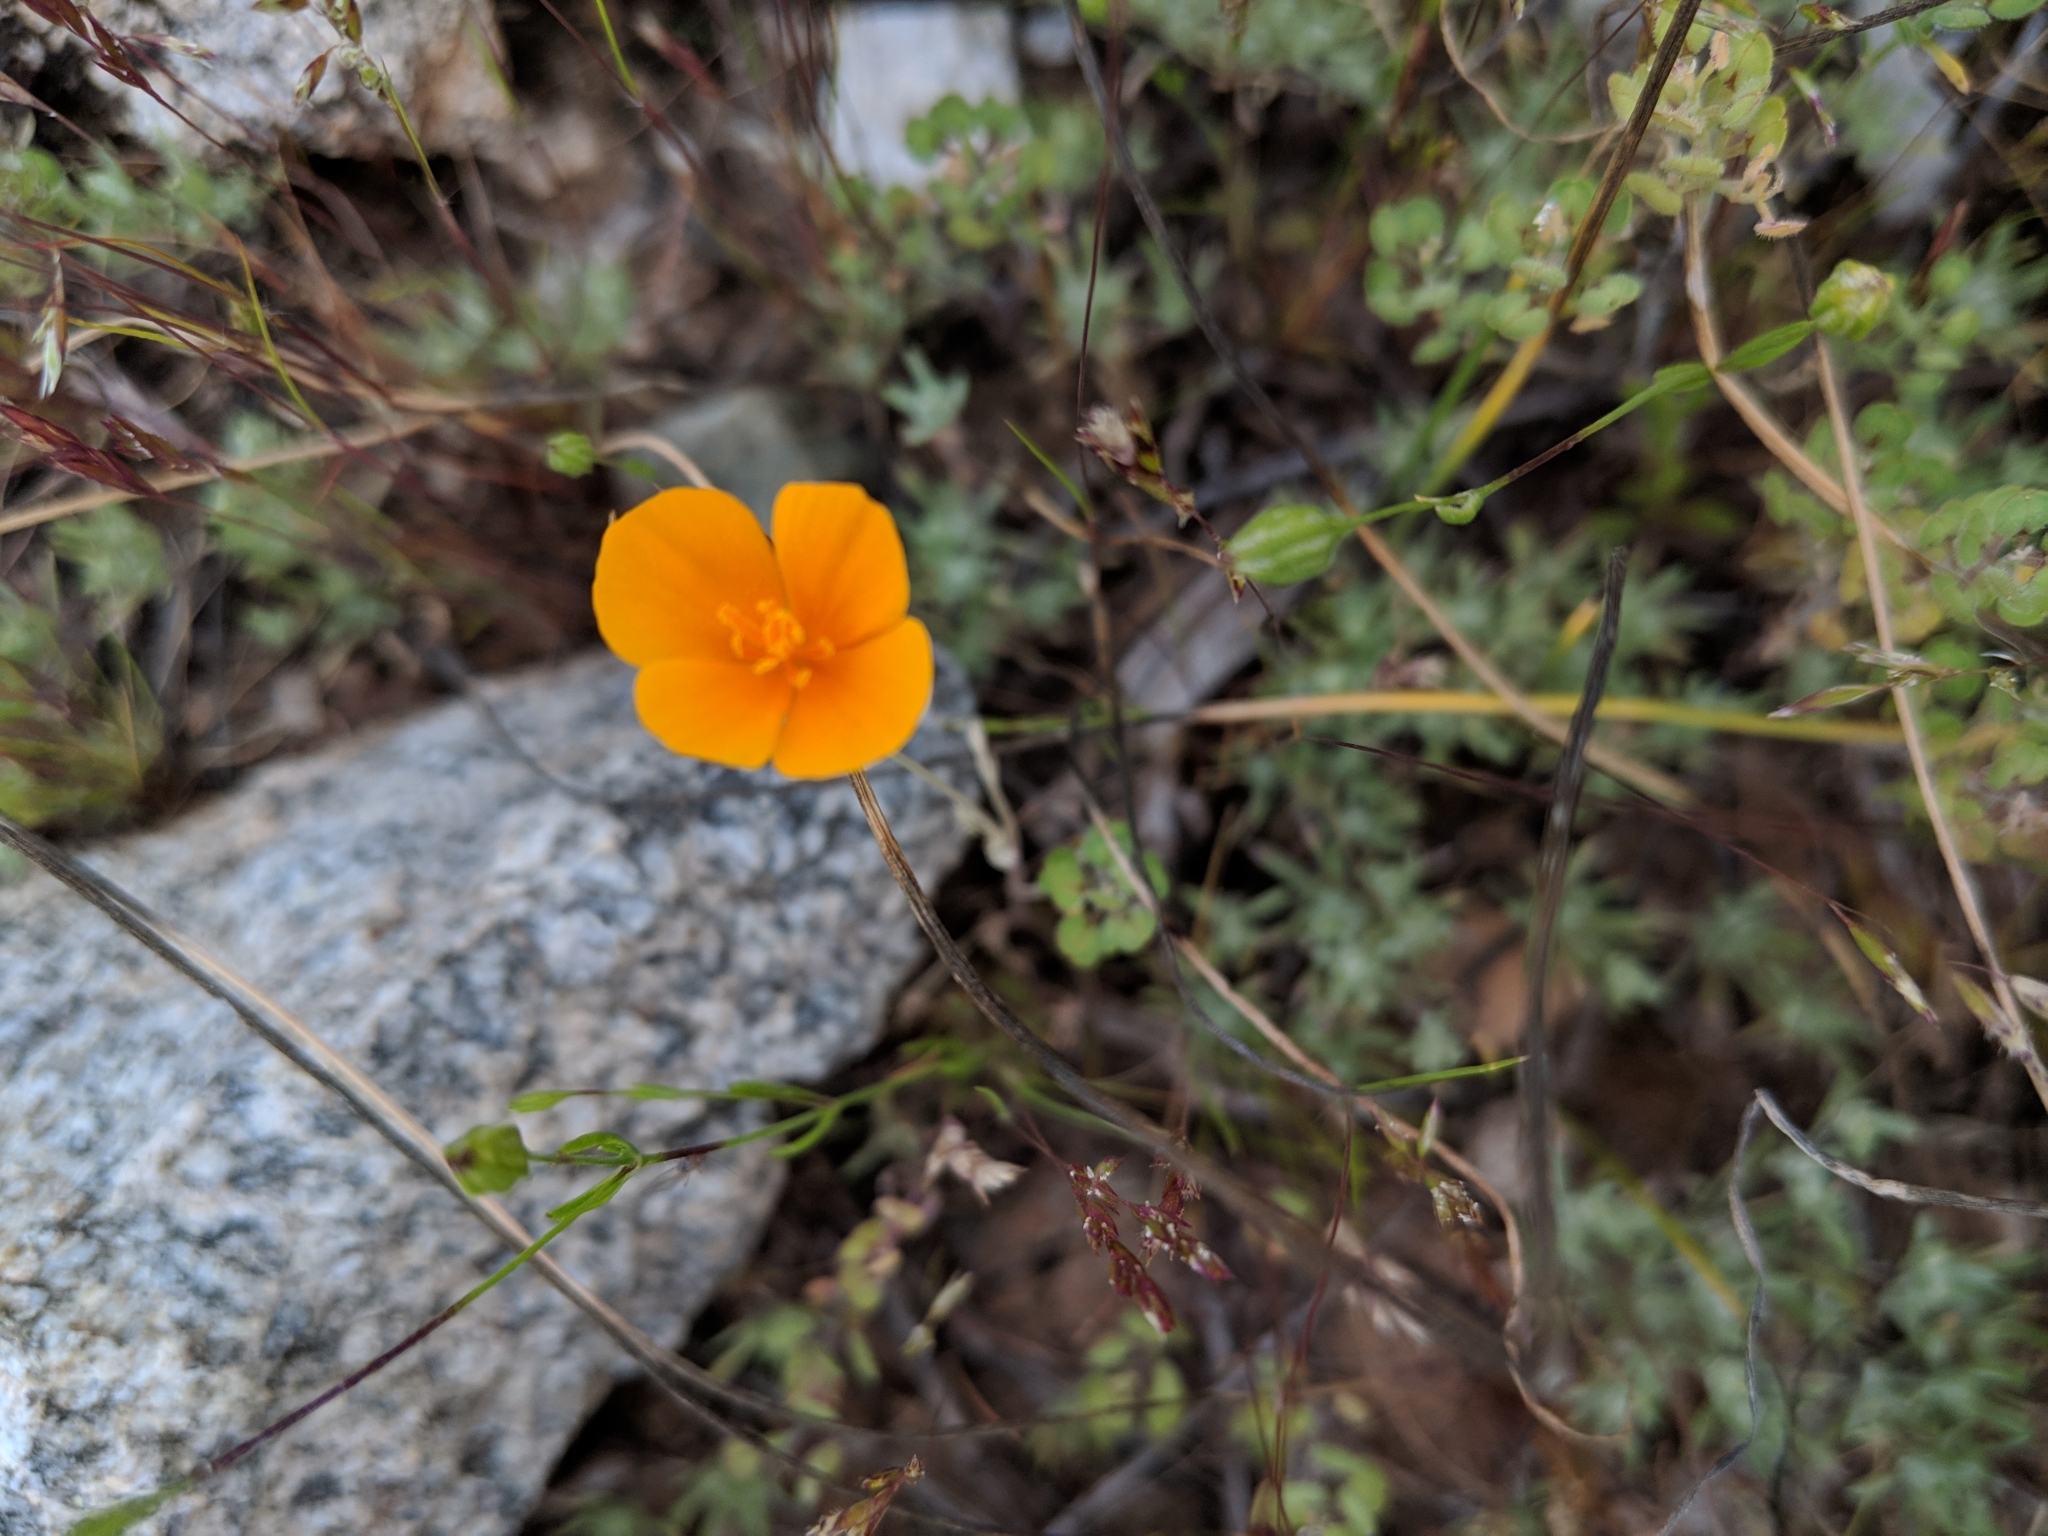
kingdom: Plantae
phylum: Tracheophyta
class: Magnoliopsida
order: Ranunculales
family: Papaveraceae
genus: Eschscholzia
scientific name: Eschscholzia
